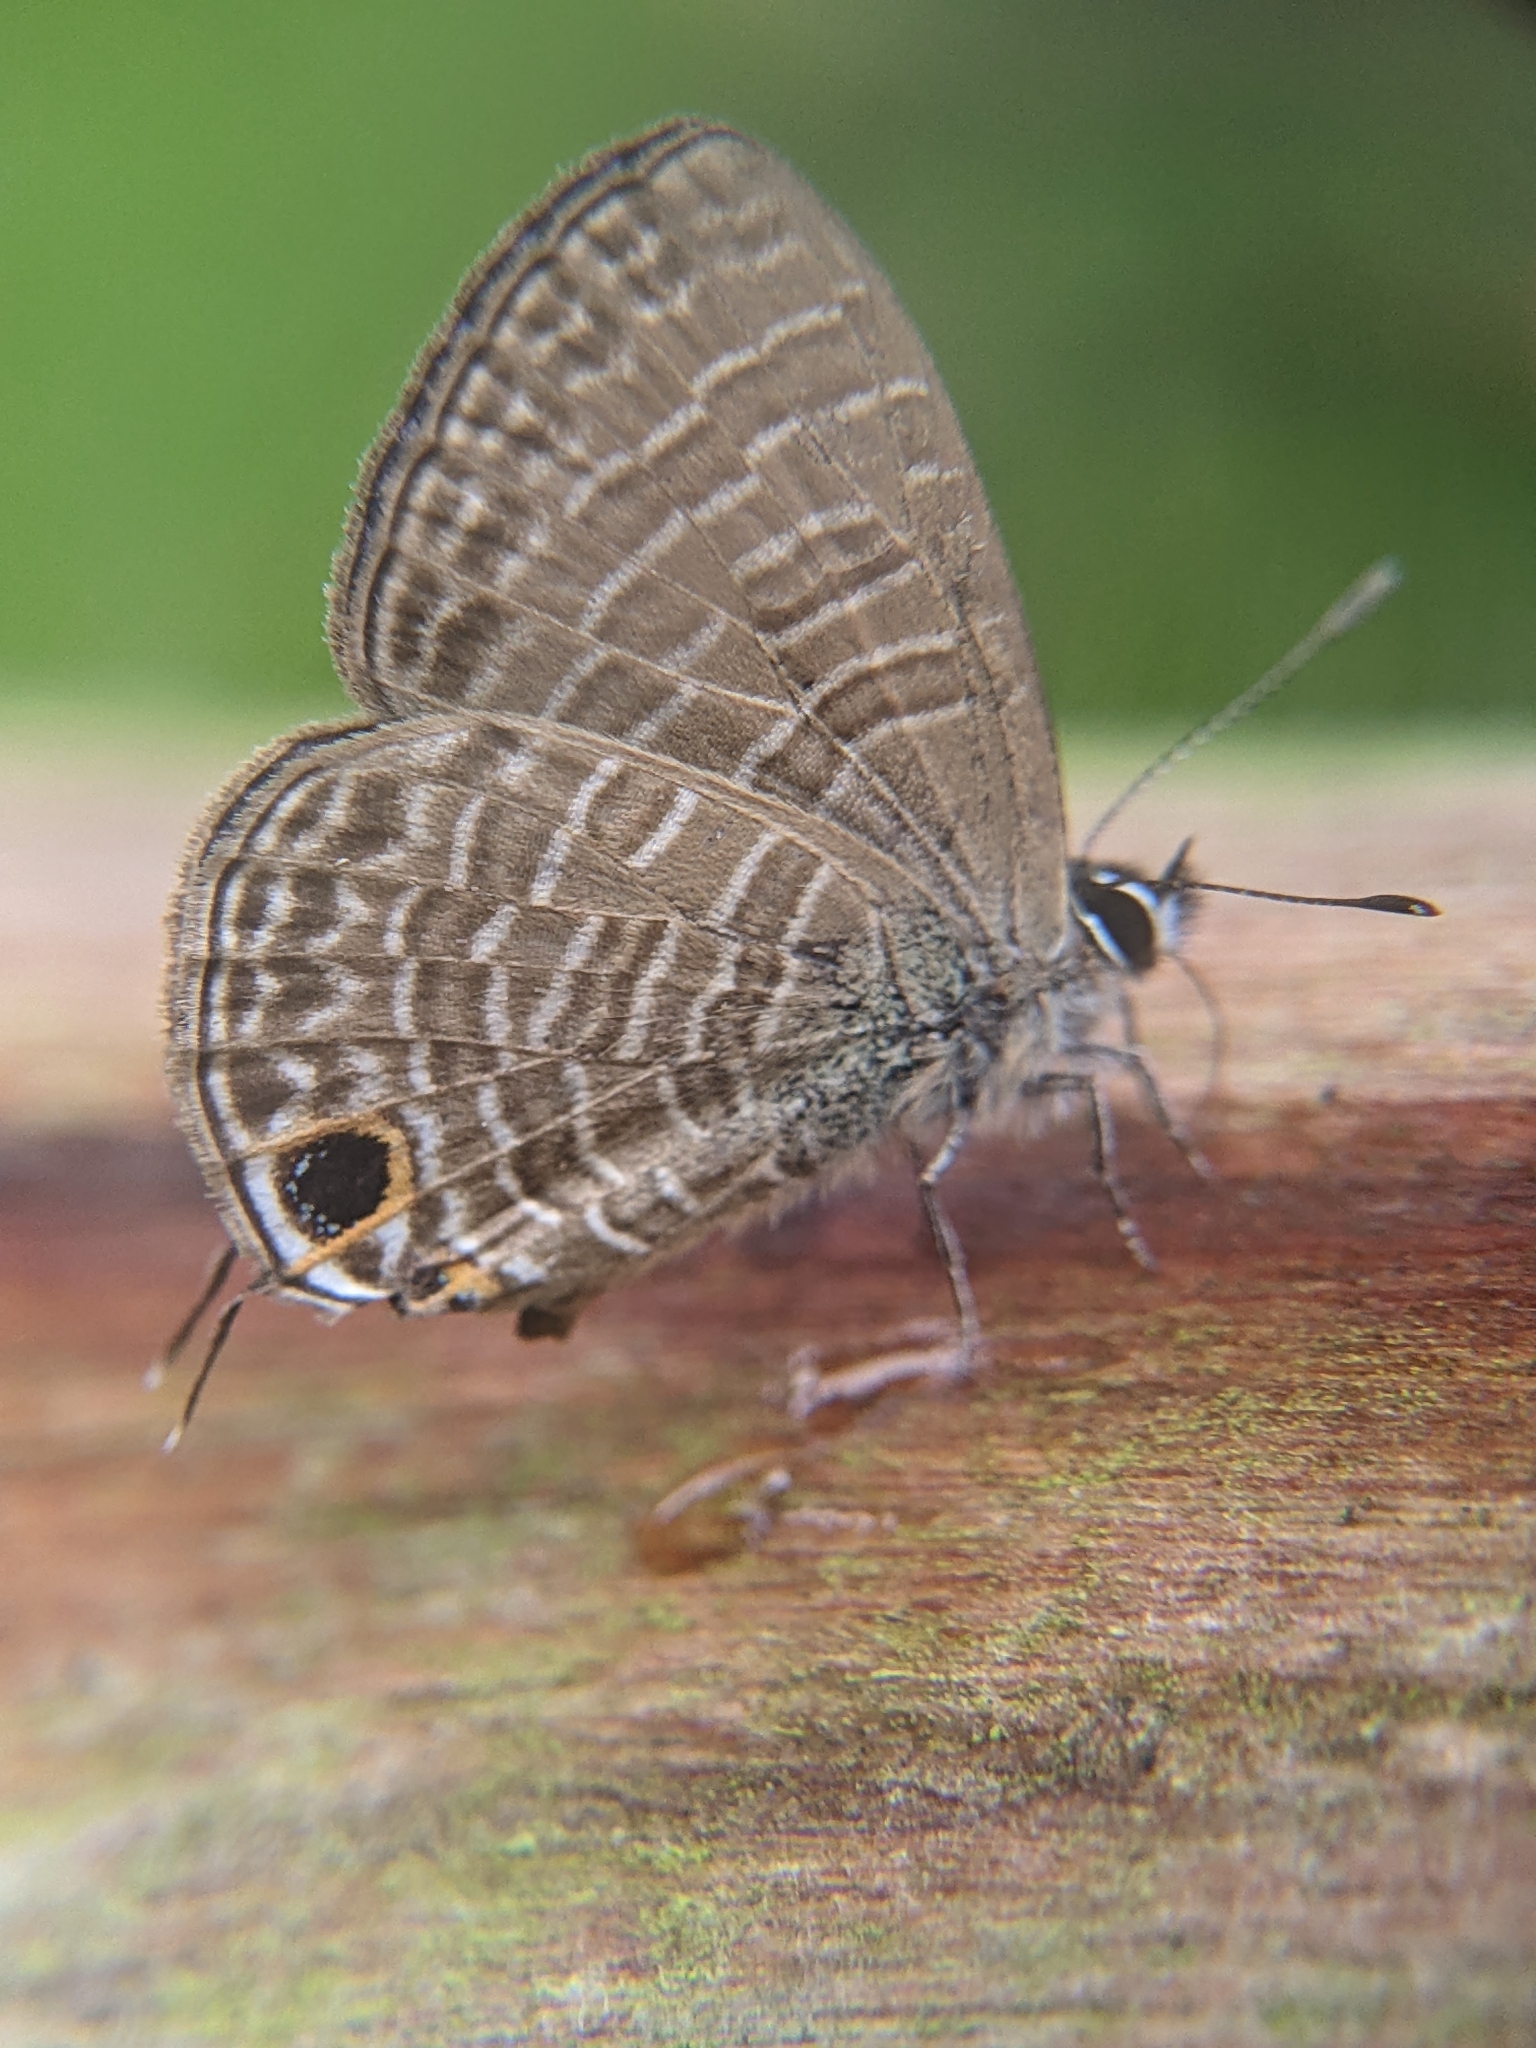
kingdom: Animalia
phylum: Arthropoda
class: Insecta
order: Lepidoptera
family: Lycaenidae
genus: Nacaduba
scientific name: Nacaduba berenice
